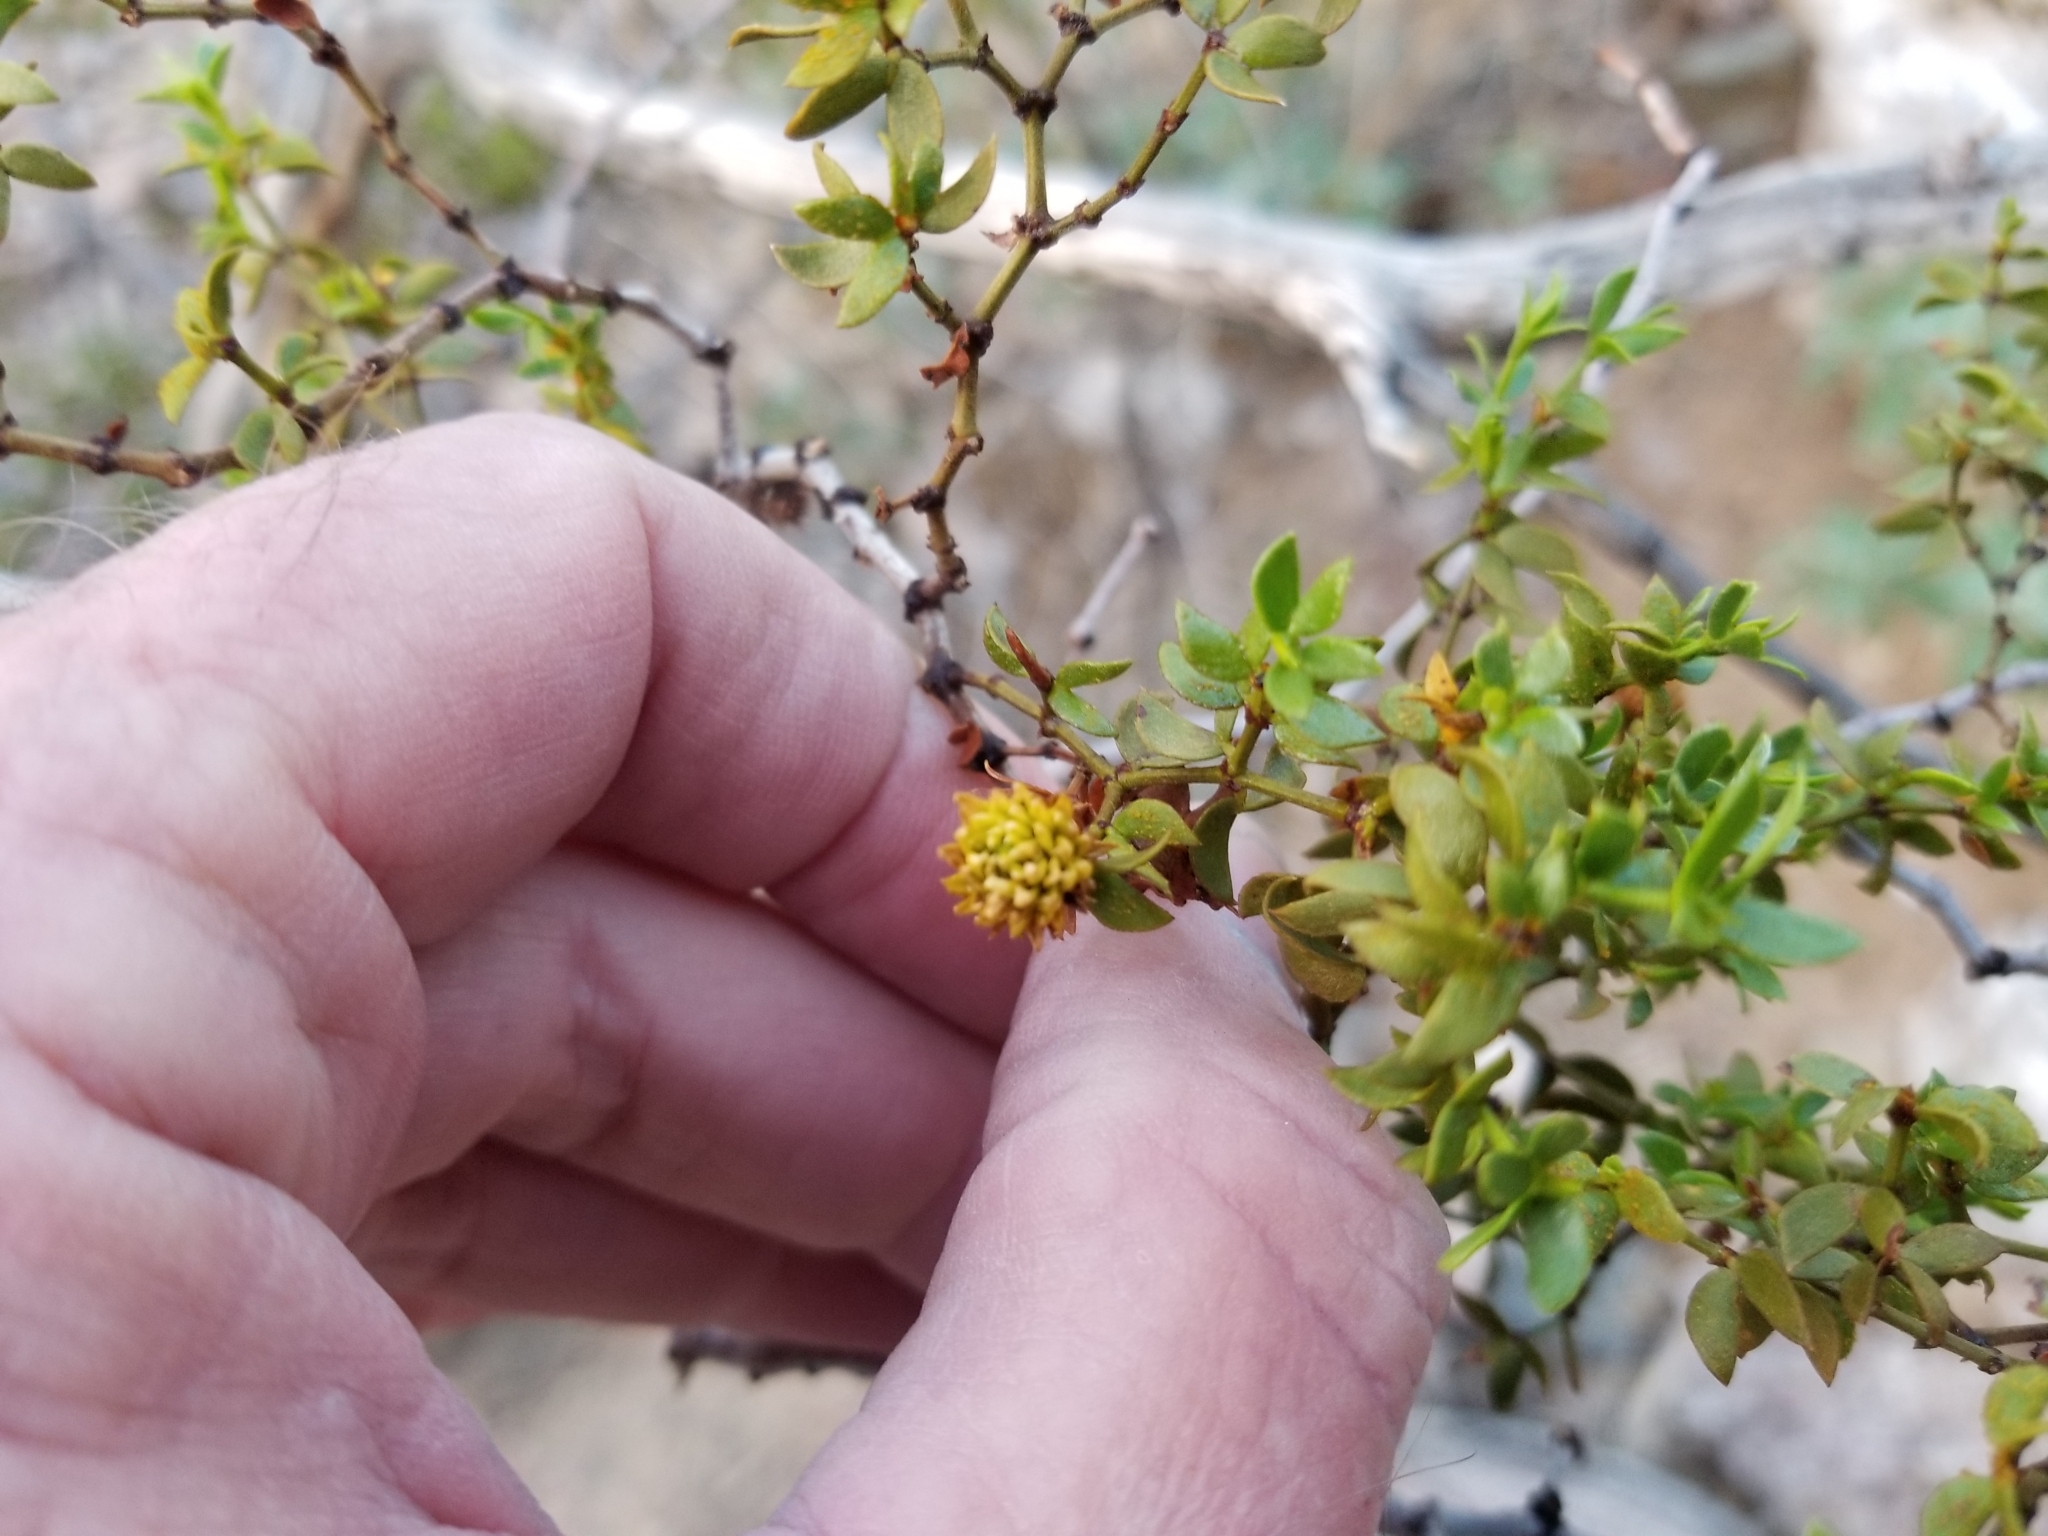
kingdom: Animalia
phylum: Arthropoda
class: Insecta
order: Diptera
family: Cecidomyiidae
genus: Asphondylia
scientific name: Asphondylia foliosa
